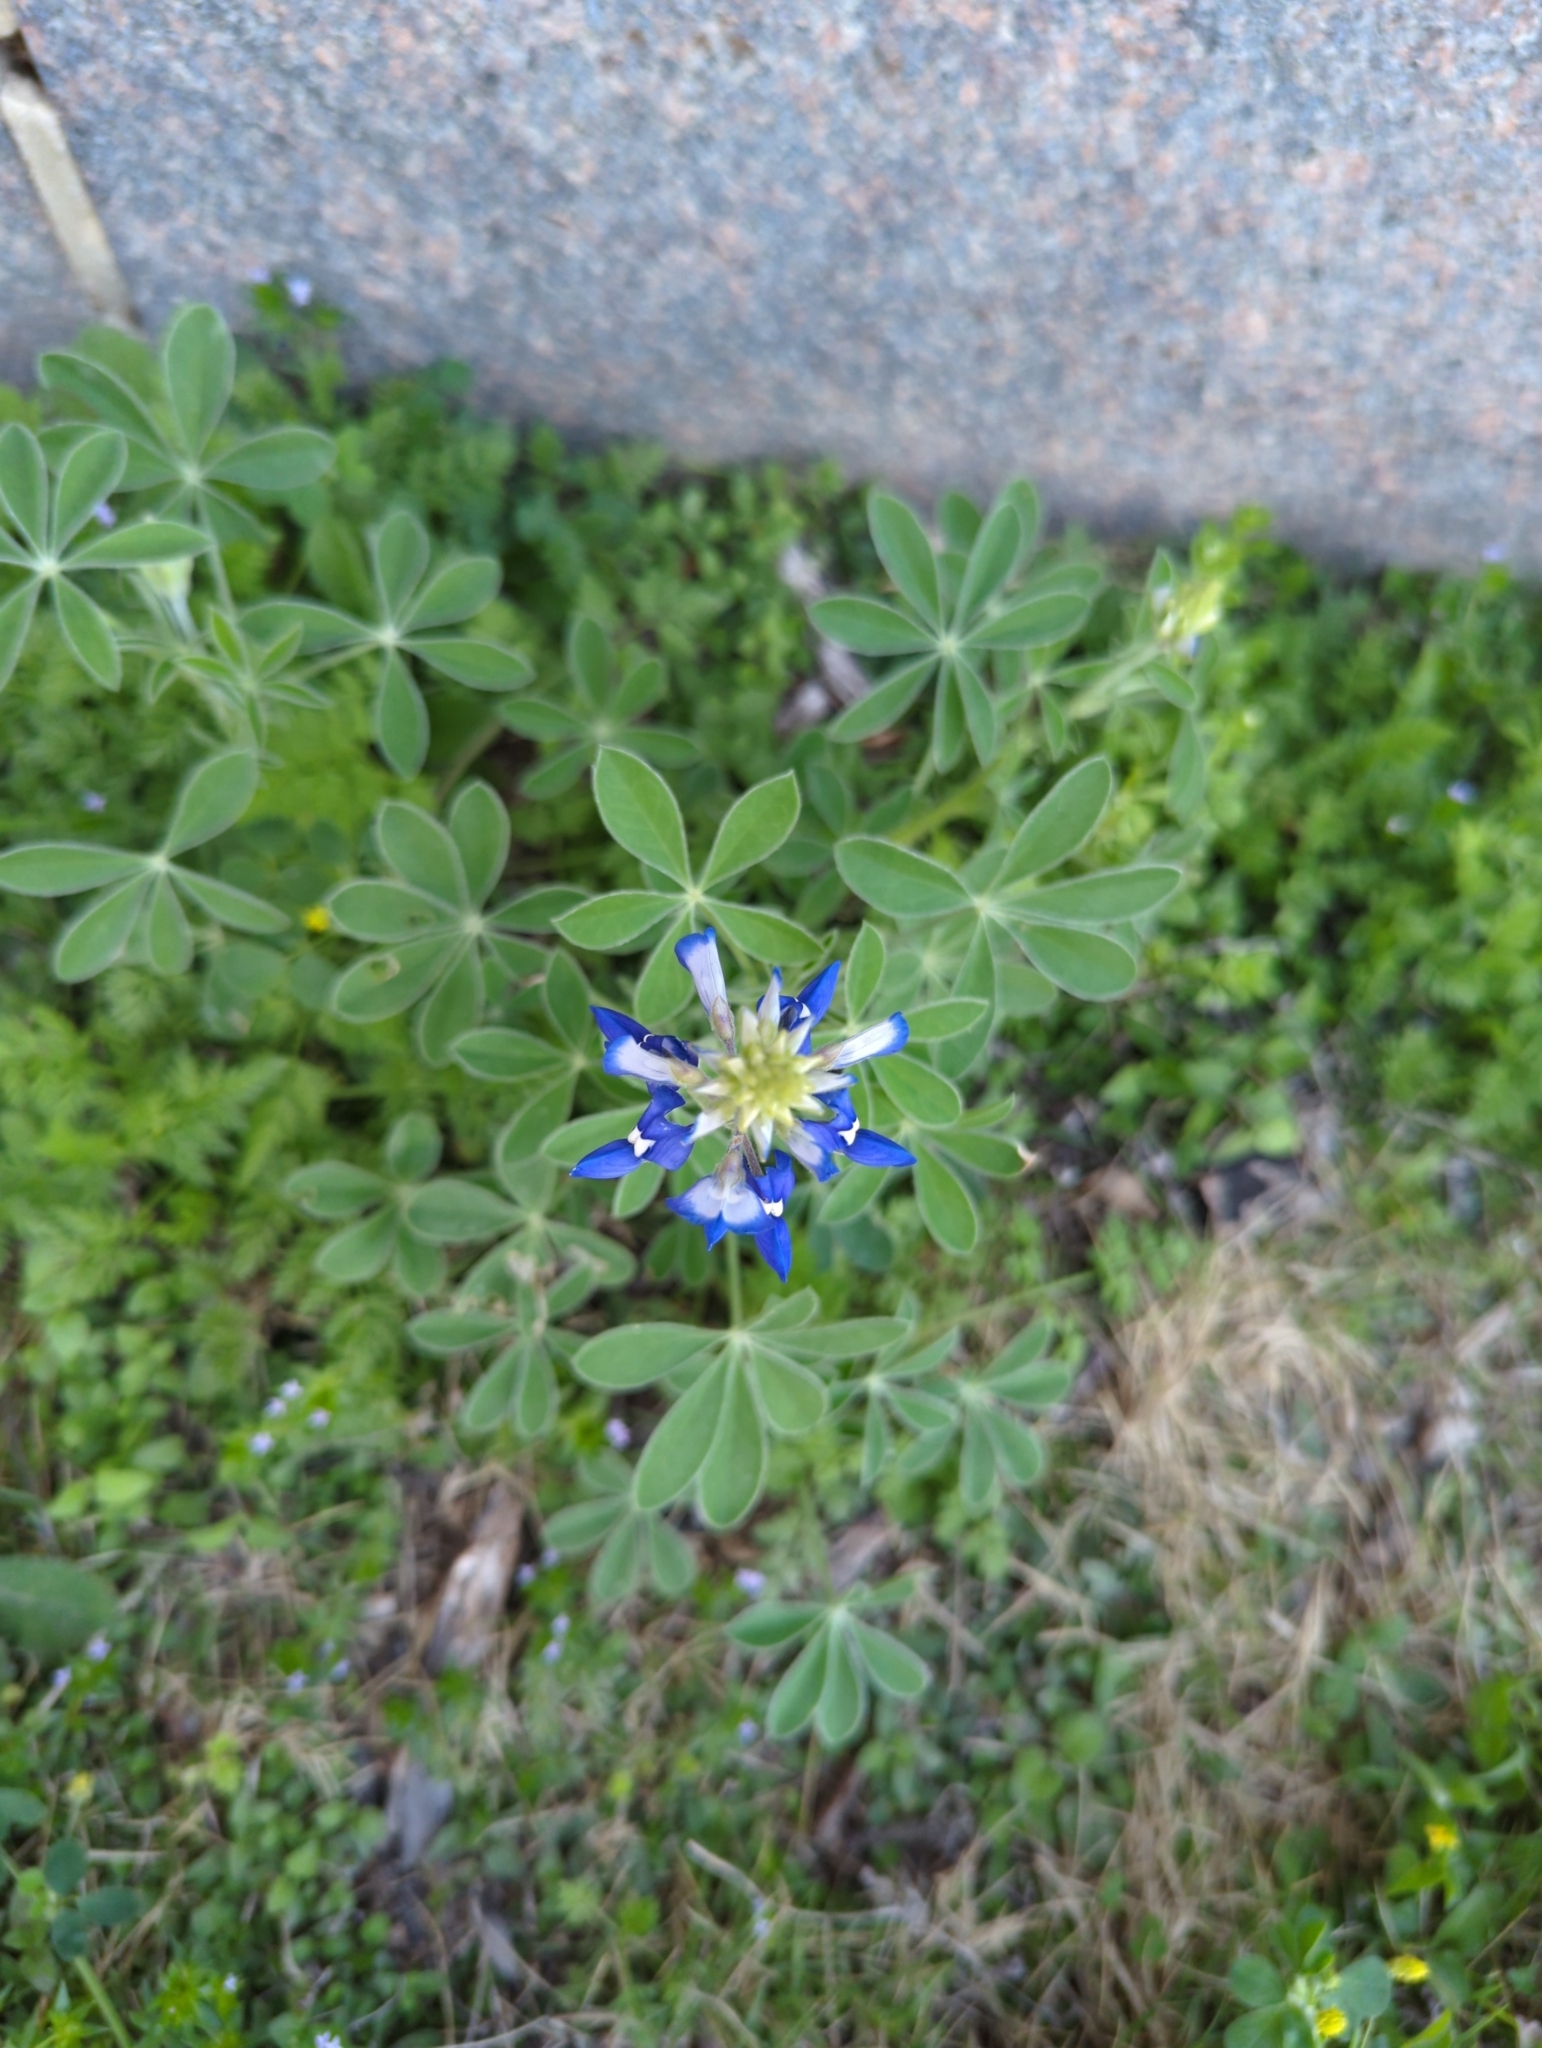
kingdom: Plantae
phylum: Tracheophyta
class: Magnoliopsida
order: Fabales
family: Fabaceae
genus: Lupinus
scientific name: Lupinus texensis
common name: Texas bluebonnet
